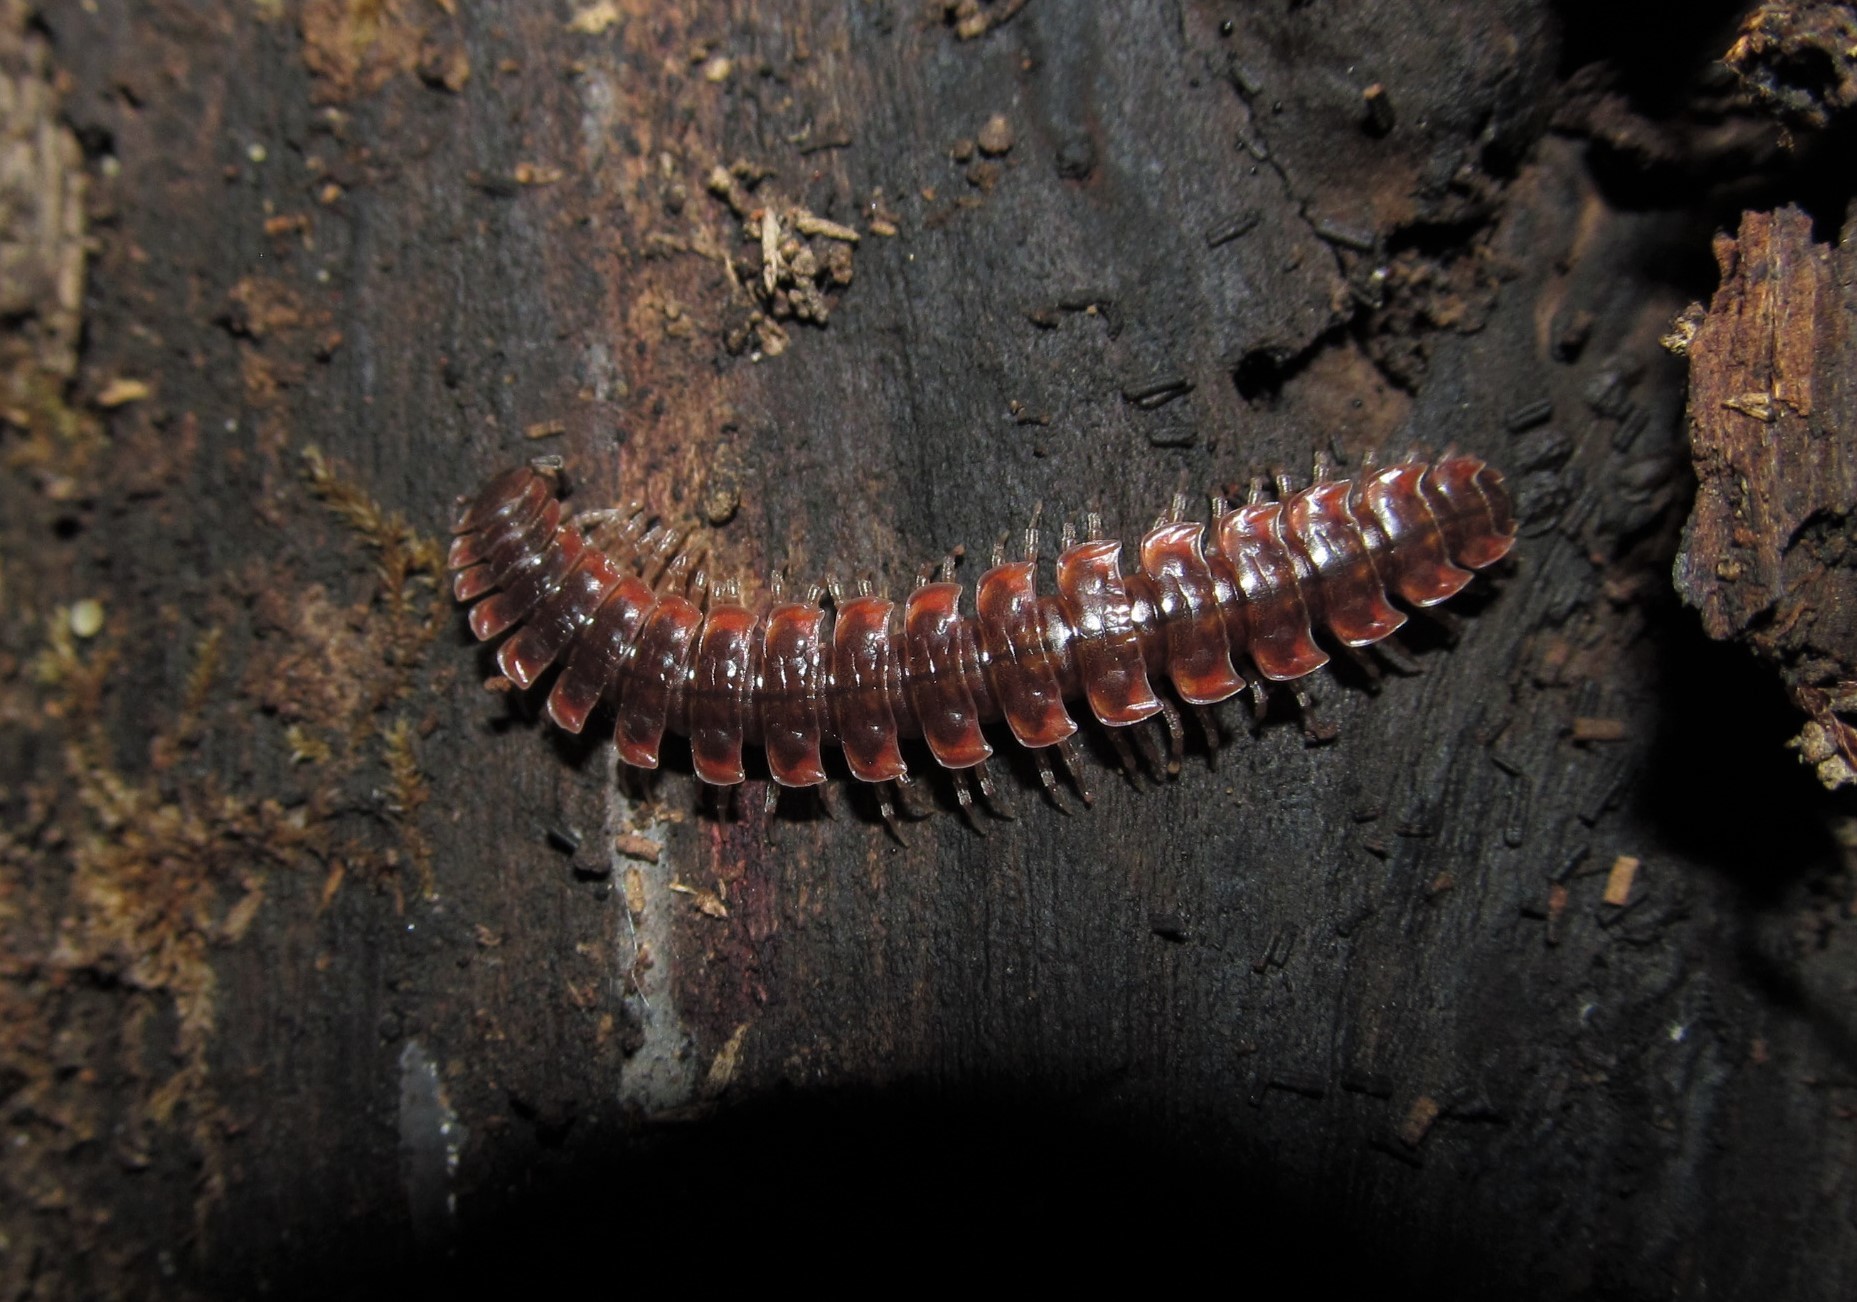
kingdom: Animalia
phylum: Arthropoda
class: Diplopoda
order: Polydesmida
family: Polydesmidae
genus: Pseudopolydesmus
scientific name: Pseudopolydesmus serratus
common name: Common pink flat-back millipede
